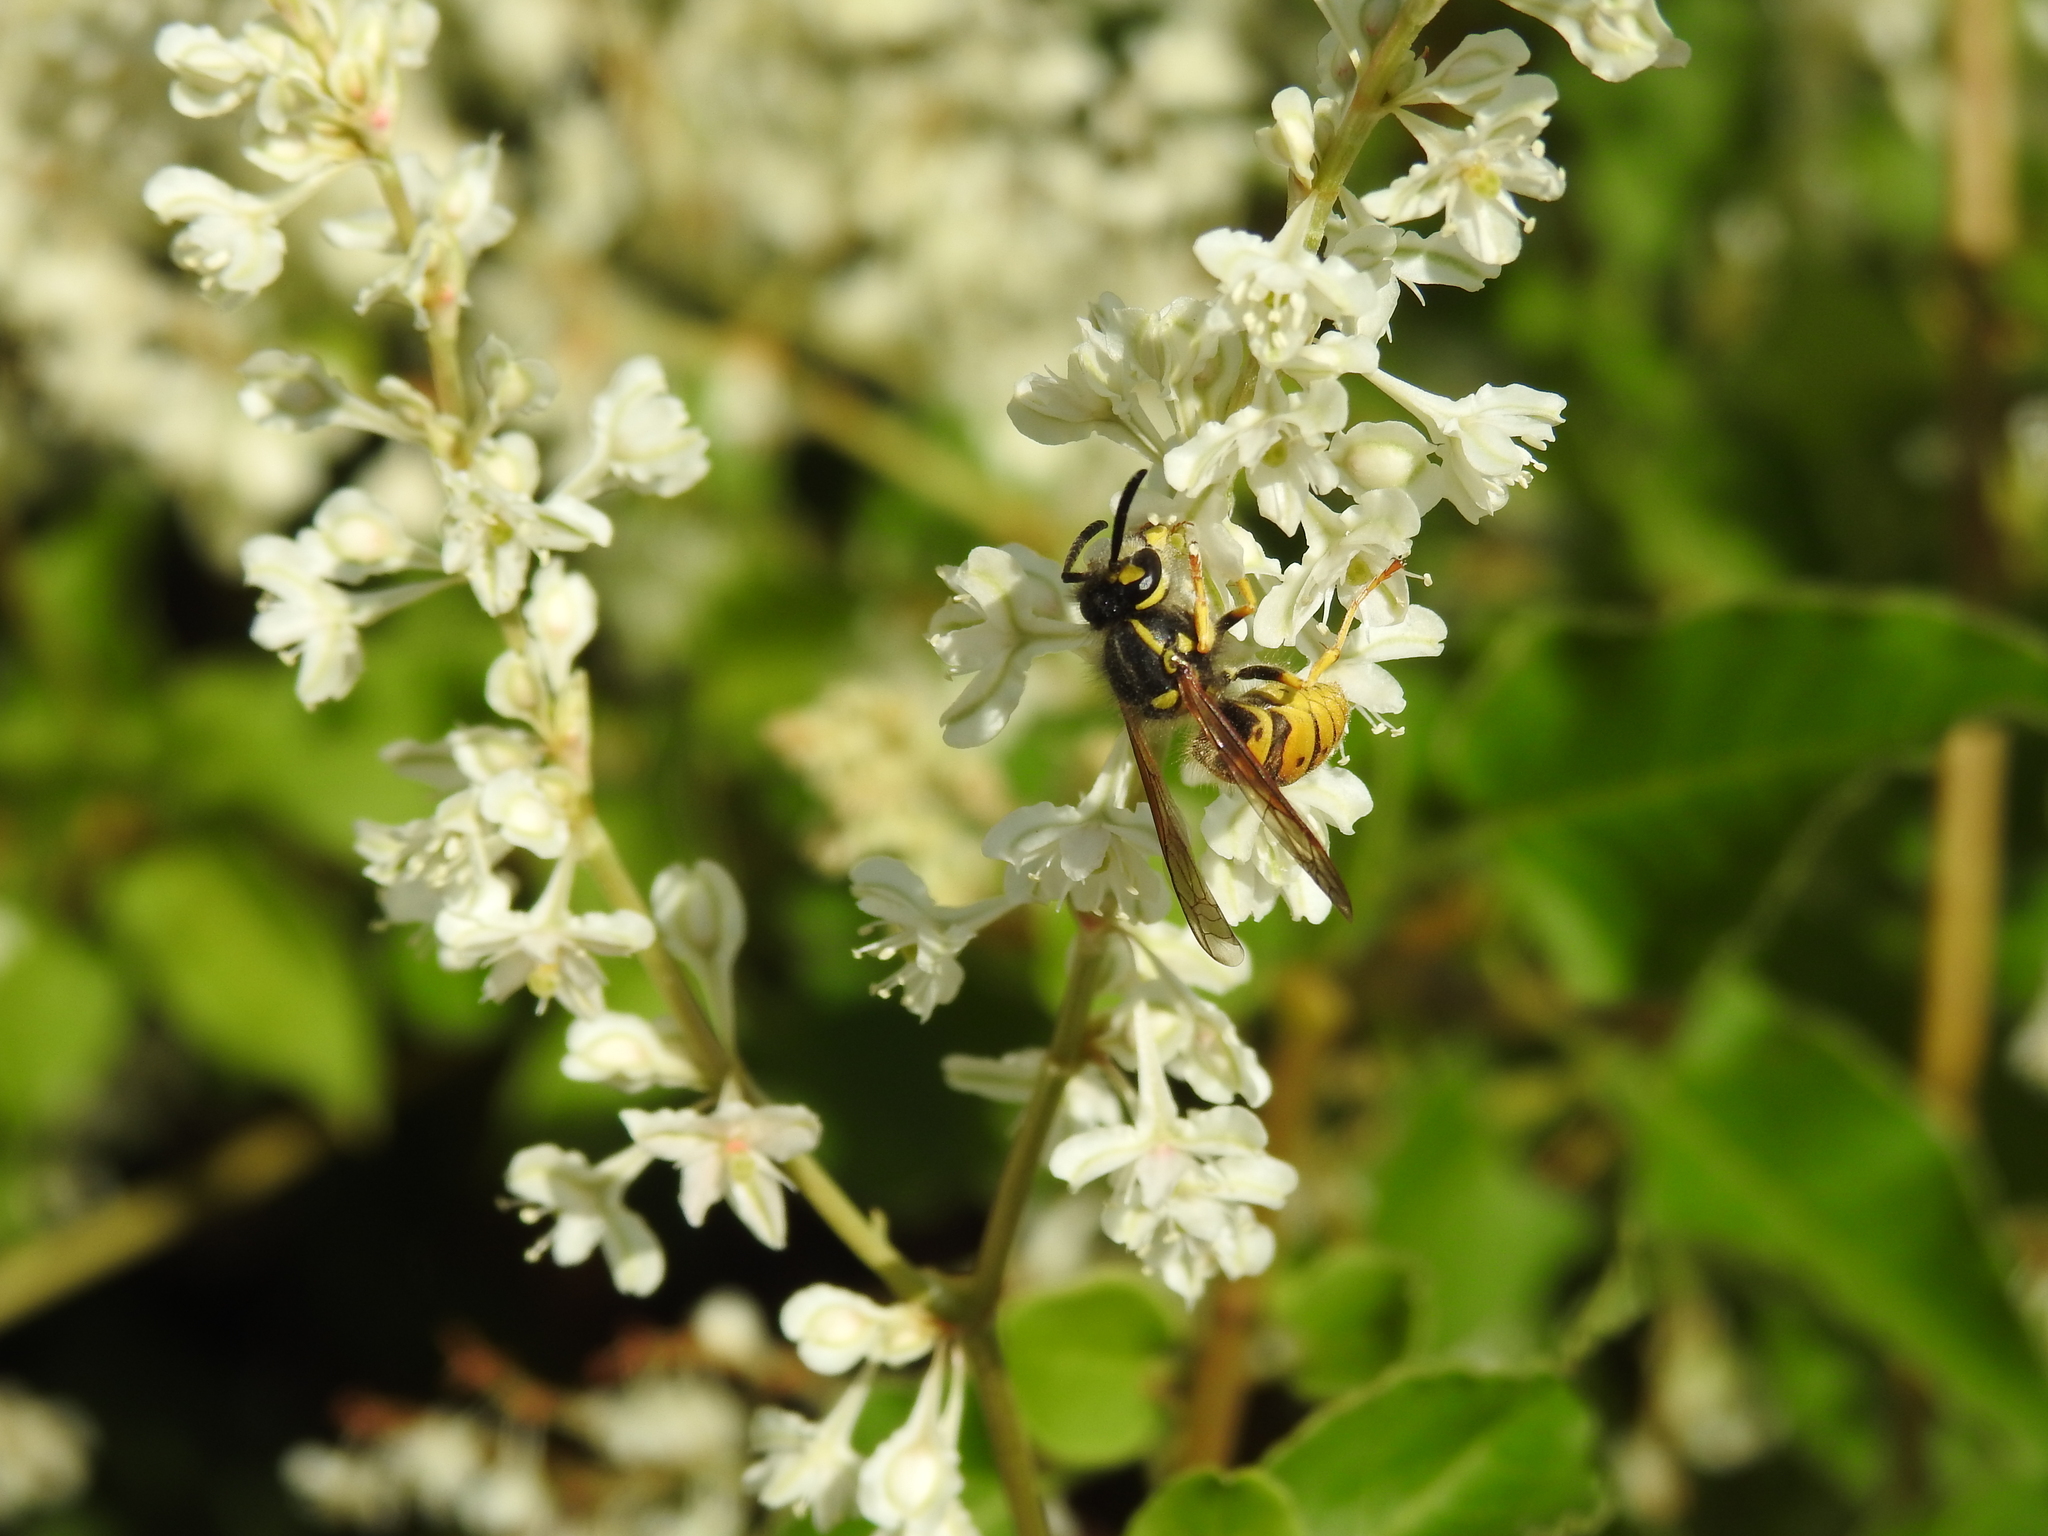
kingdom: Animalia
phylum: Arthropoda
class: Insecta
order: Hymenoptera
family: Vespidae
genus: Vespula
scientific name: Vespula germanica
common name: German wasp
